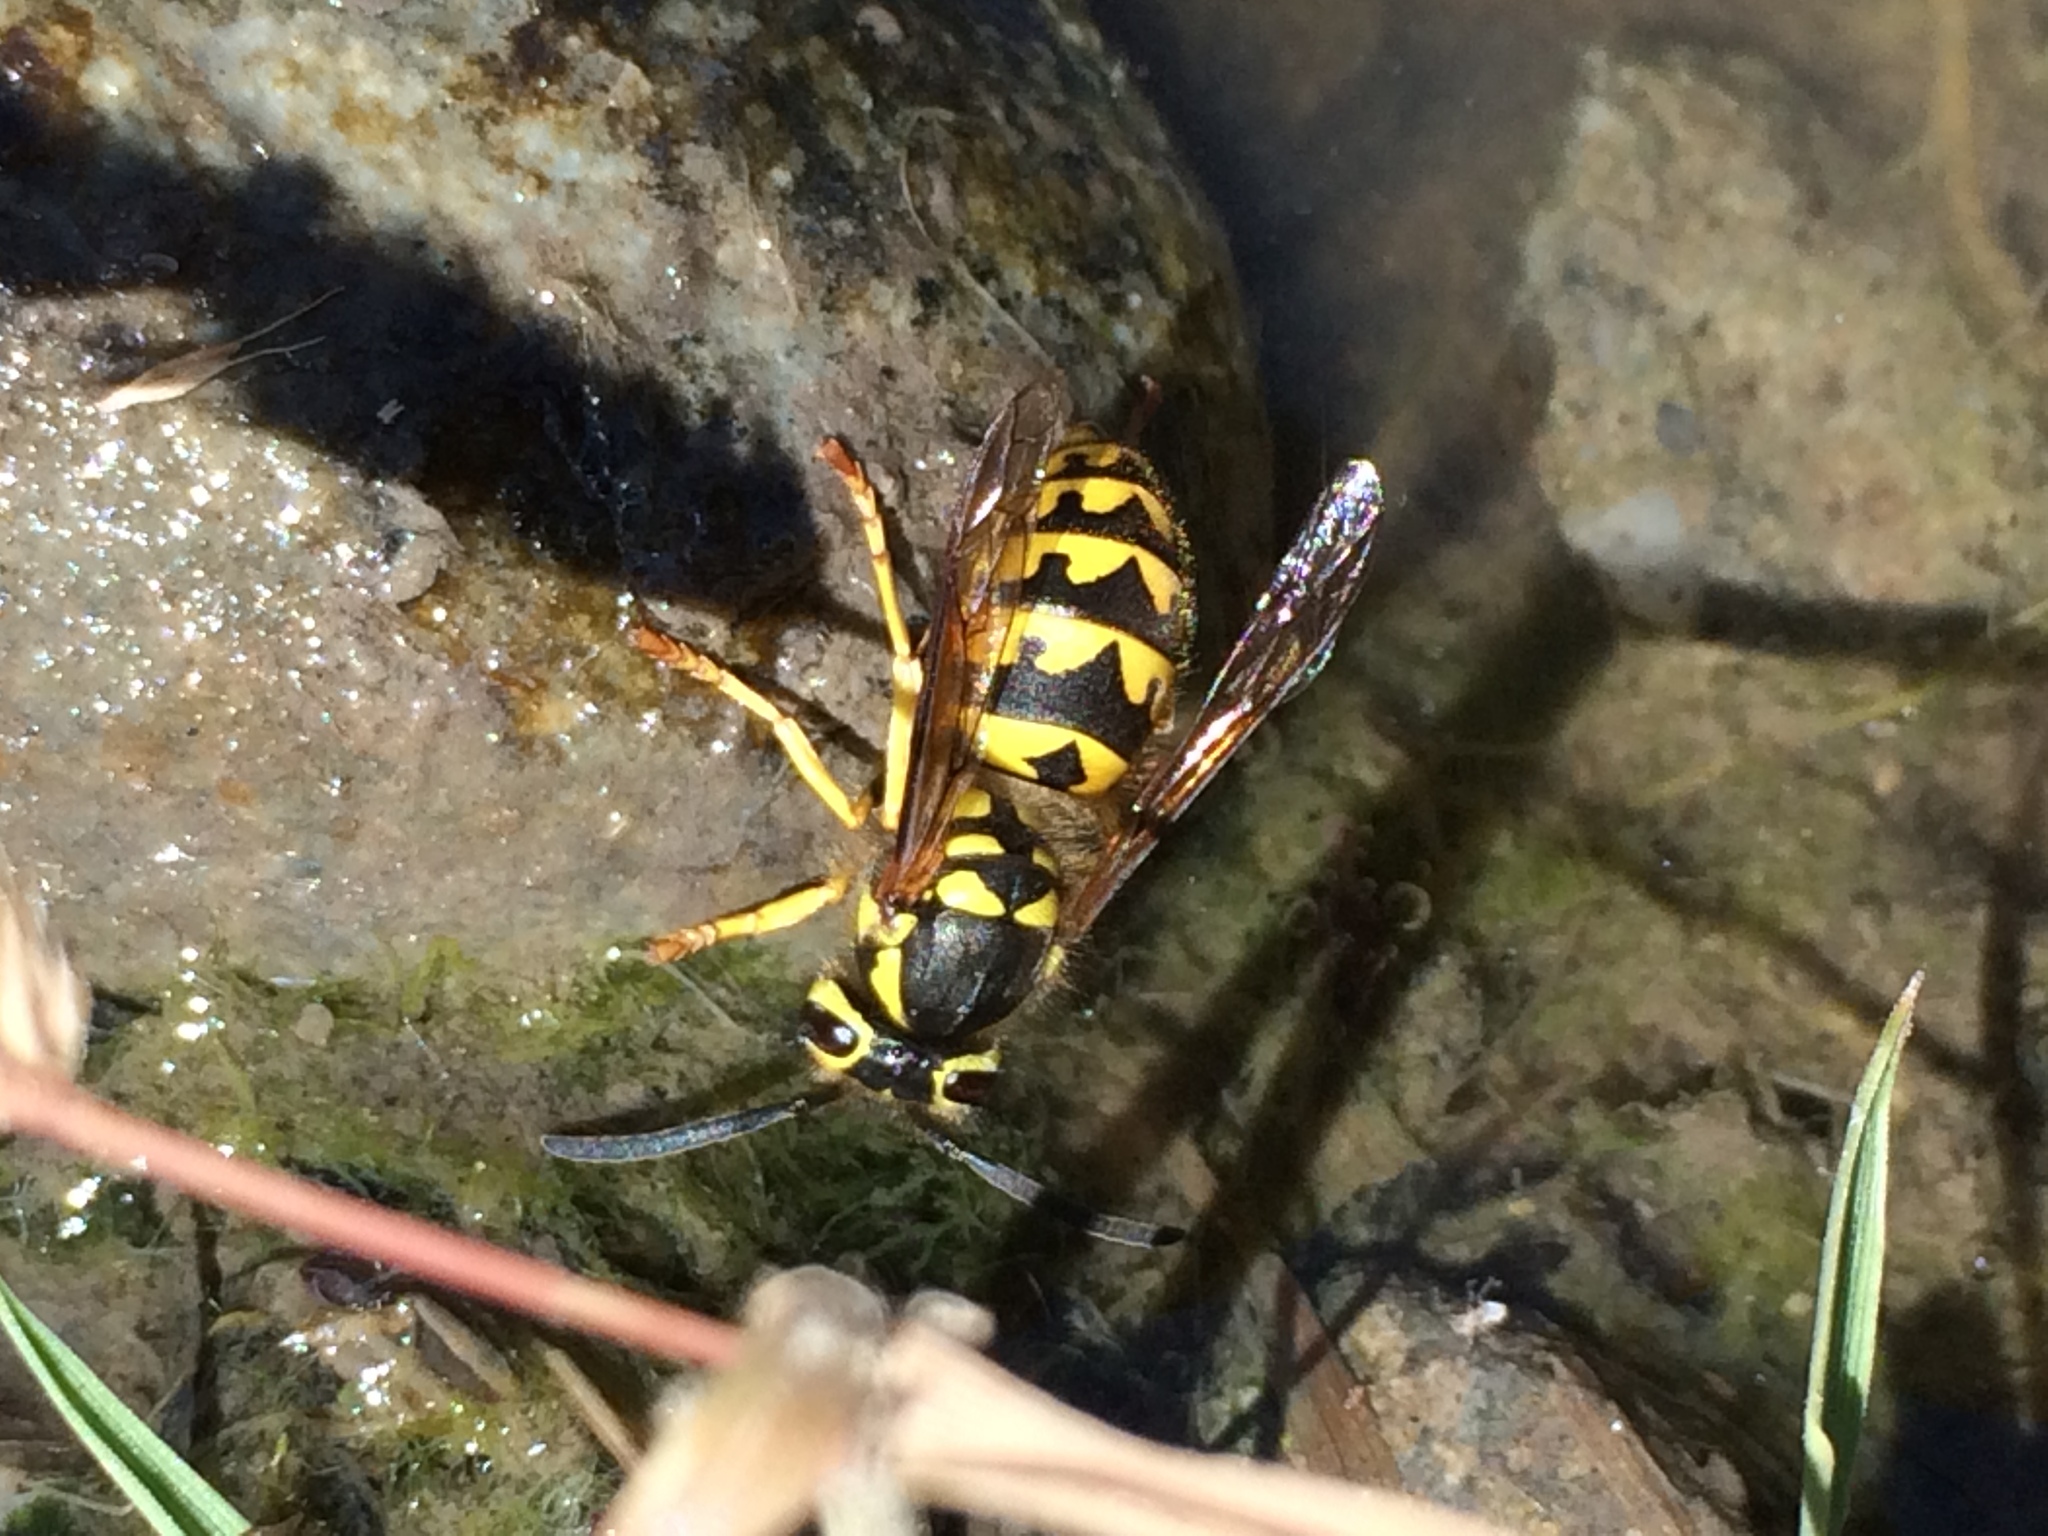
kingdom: Animalia
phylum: Arthropoda
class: Insecta
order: Hymenoptera
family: Vespidae
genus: Vespula
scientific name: Vespula pensylvanica
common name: Western yellowjacket
